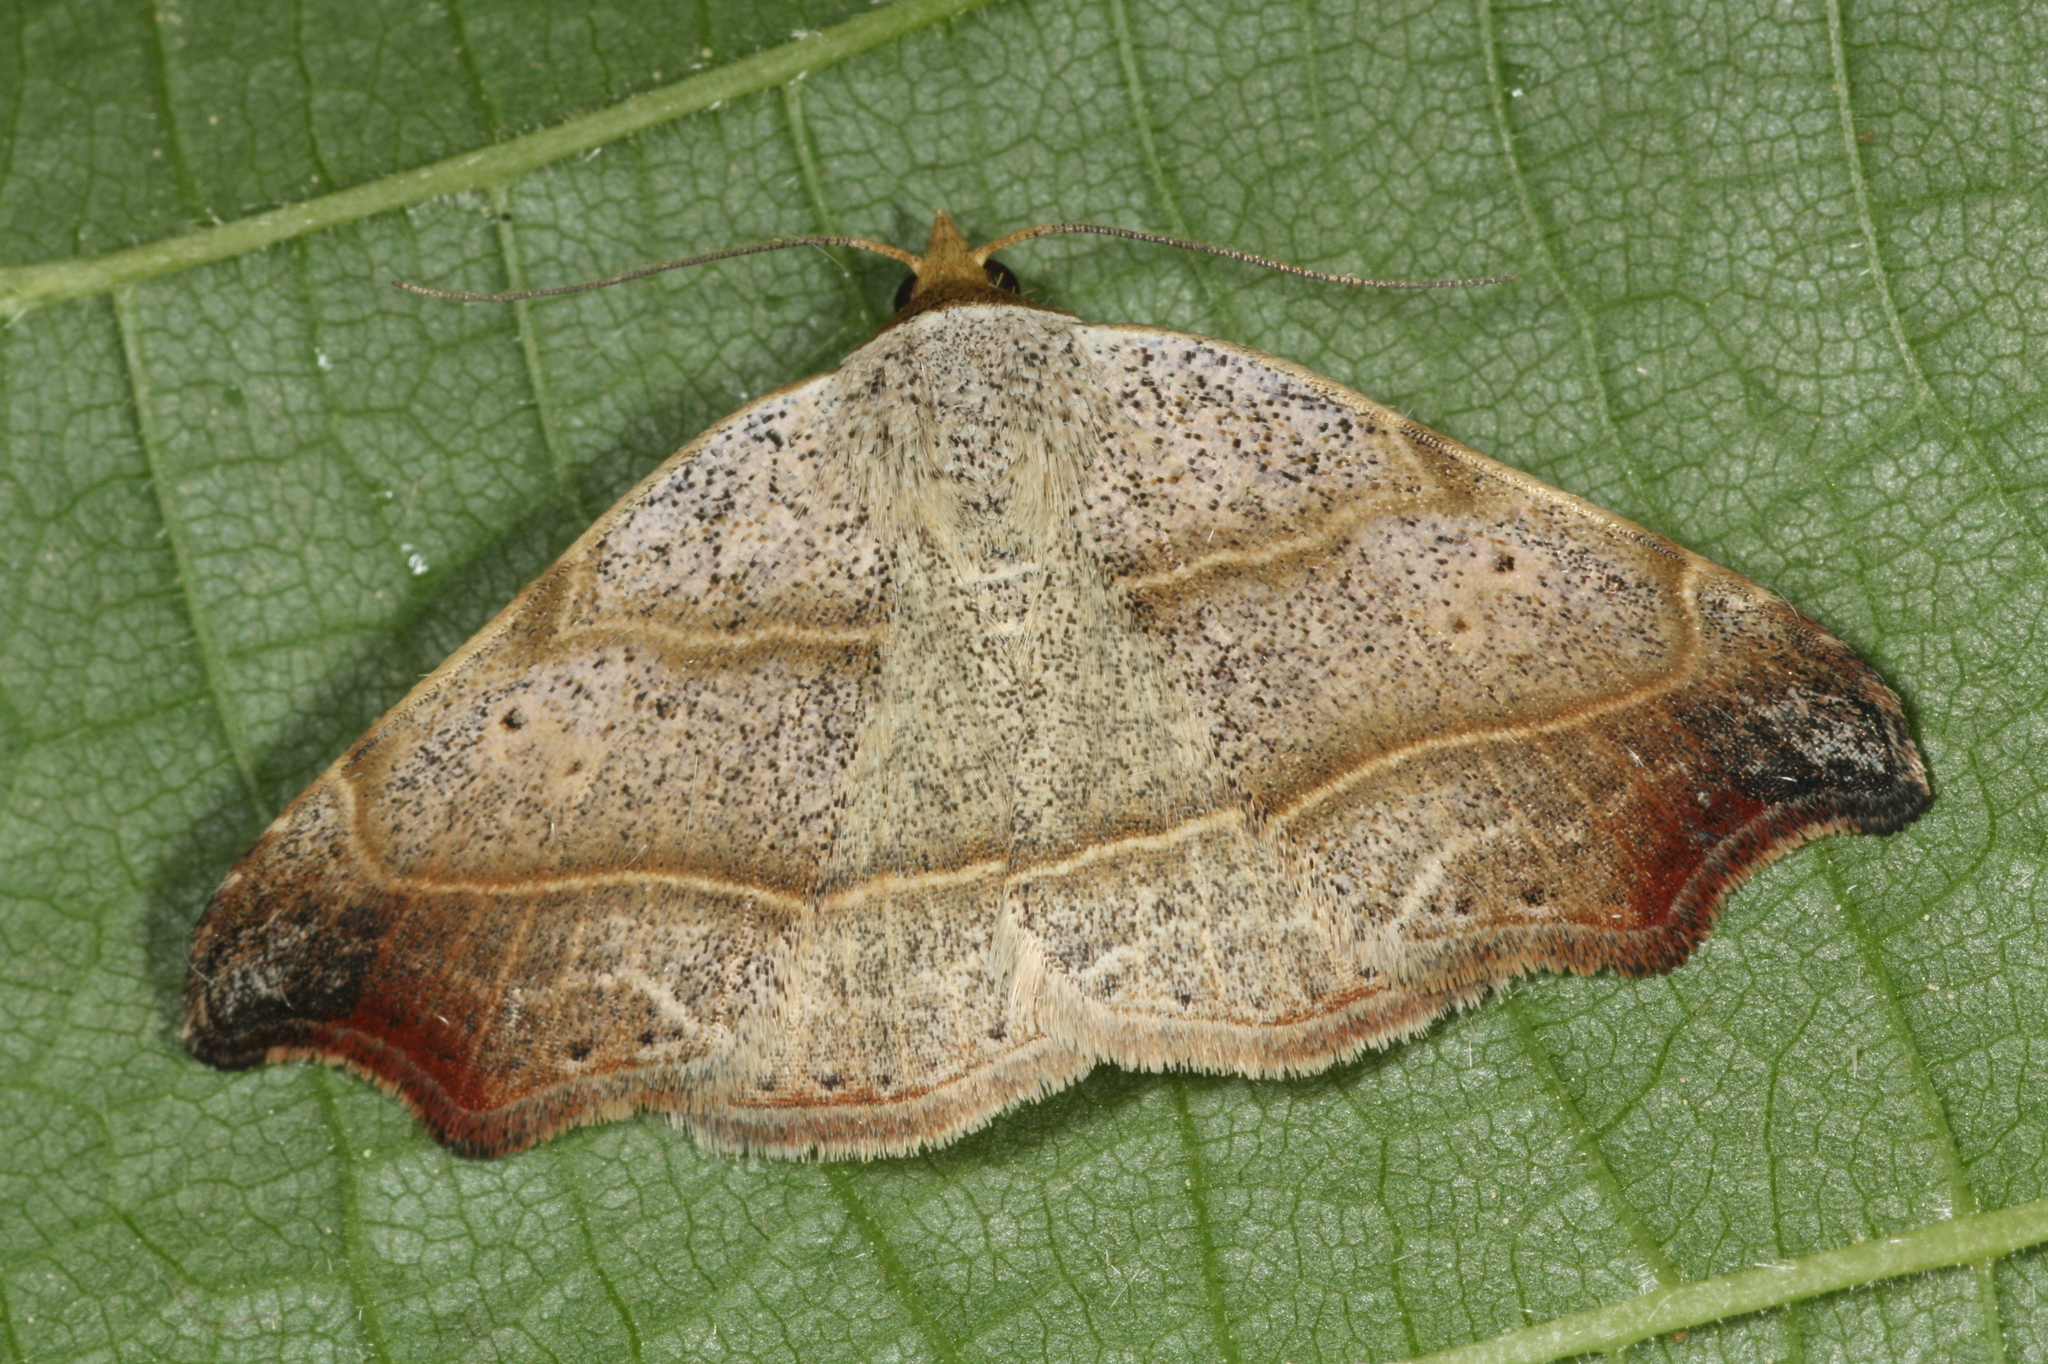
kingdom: Animalia
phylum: Arthropoda
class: Insecta
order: Lepidoptera
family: Erebidae
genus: Laspeyria
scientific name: Laspeyria flexula
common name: Beautiful hook-tip
